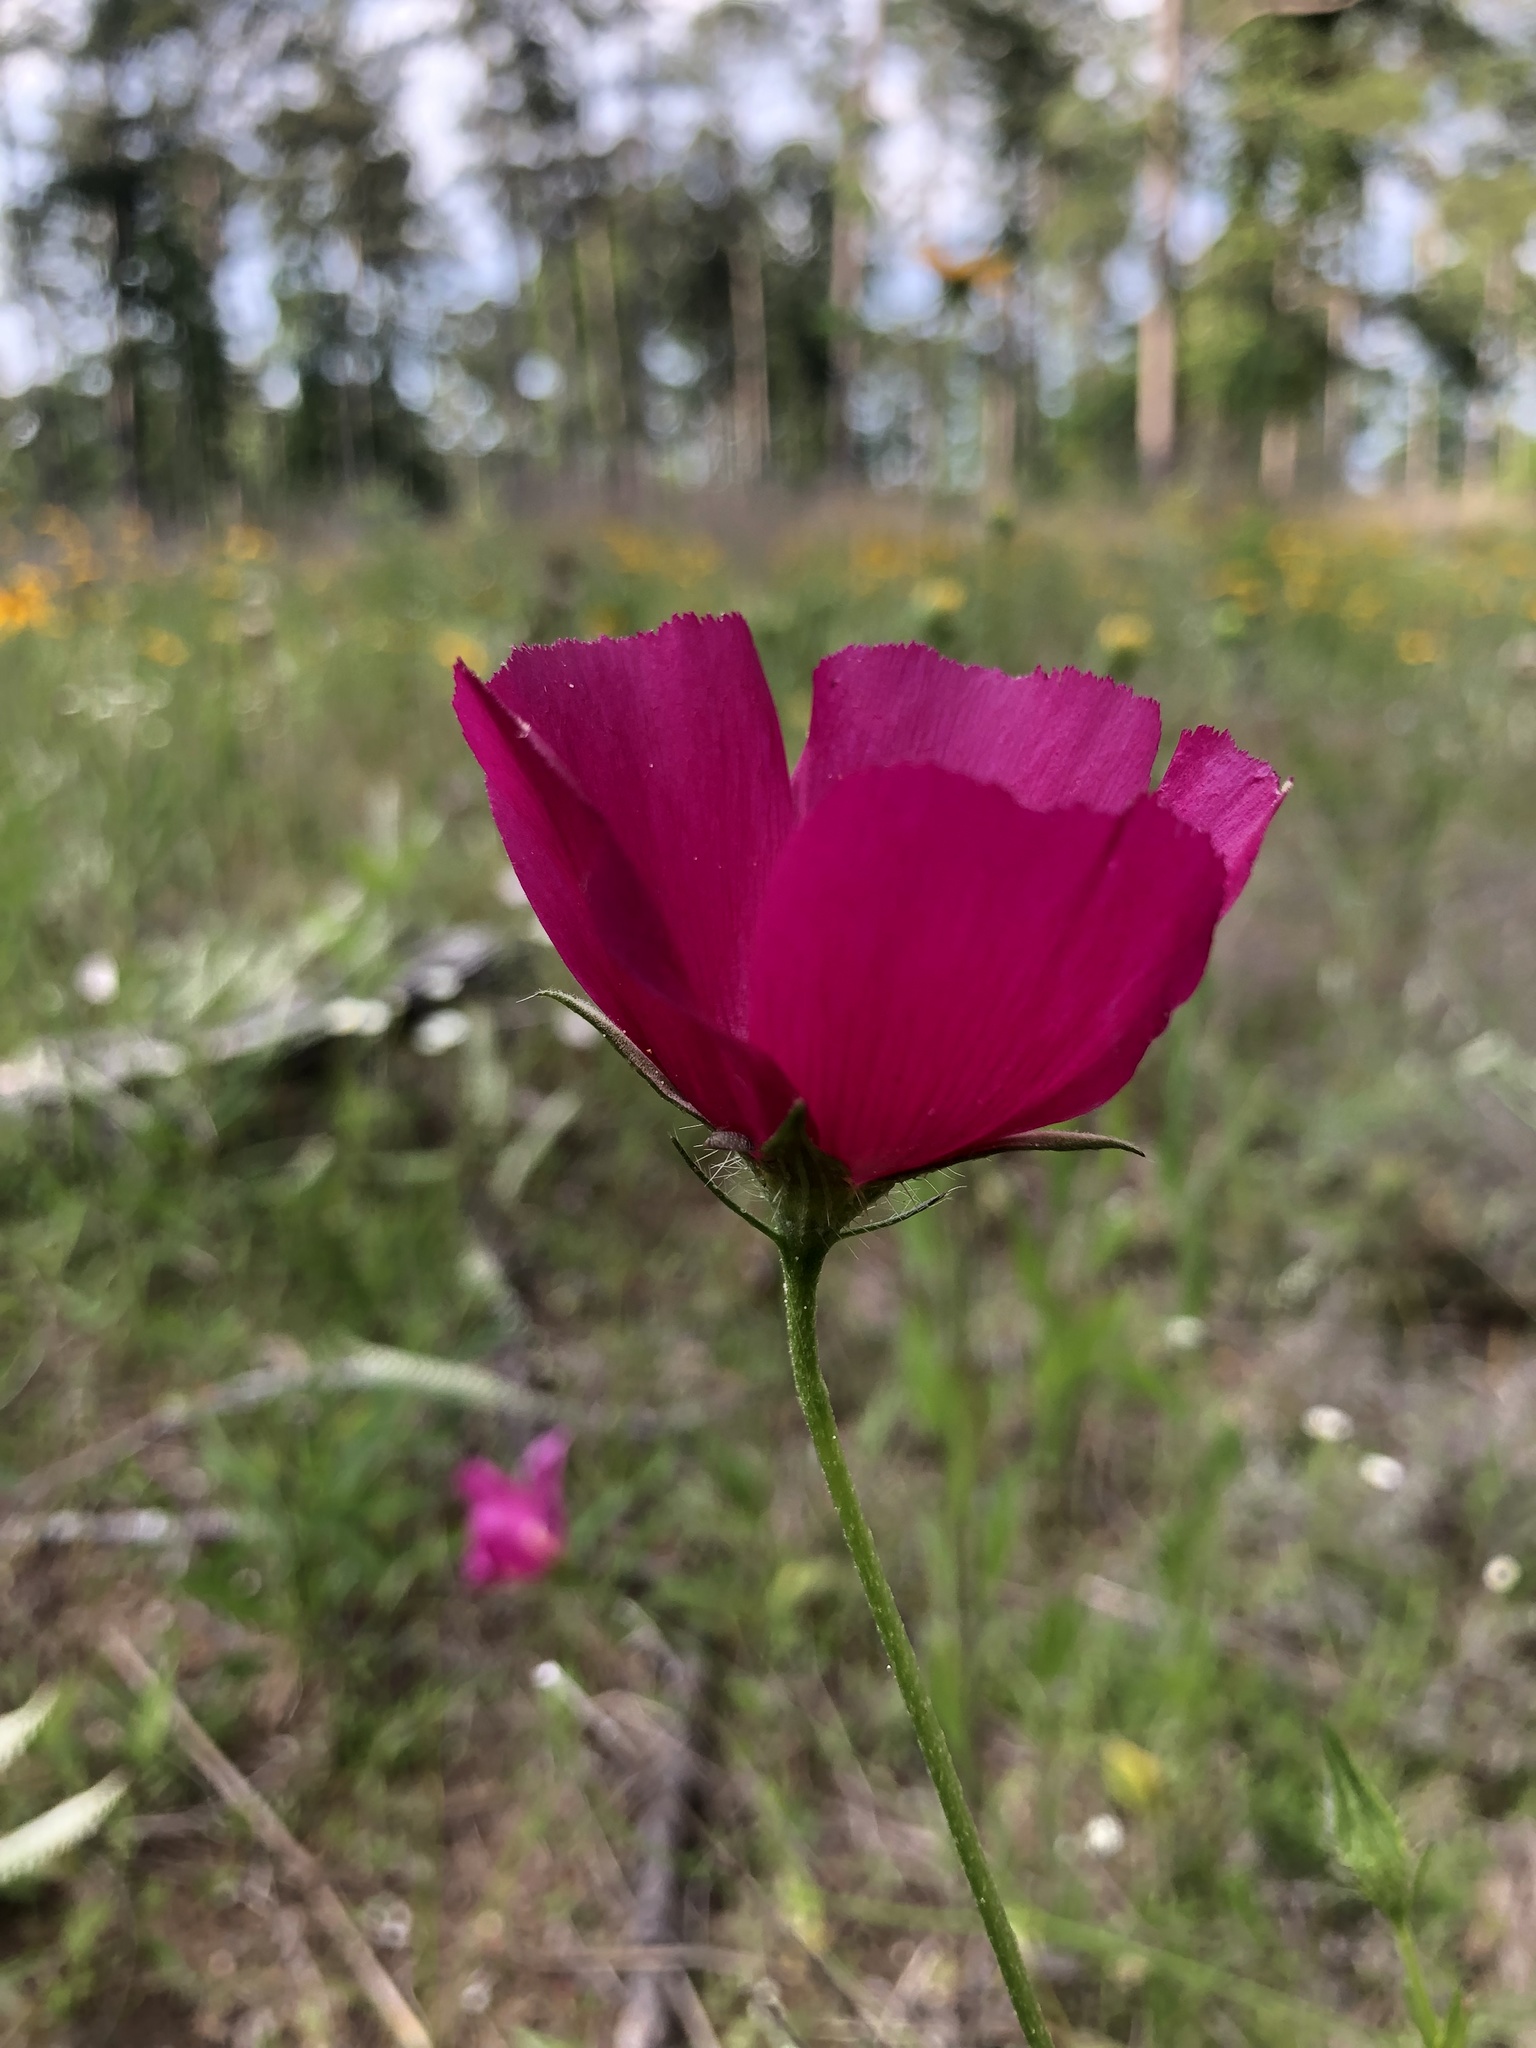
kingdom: Plantae
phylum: Tracheophyta
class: Magnoliopsida
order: Malvales
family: Malvaceae
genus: Callirhoe
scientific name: Callirhoe papaver
